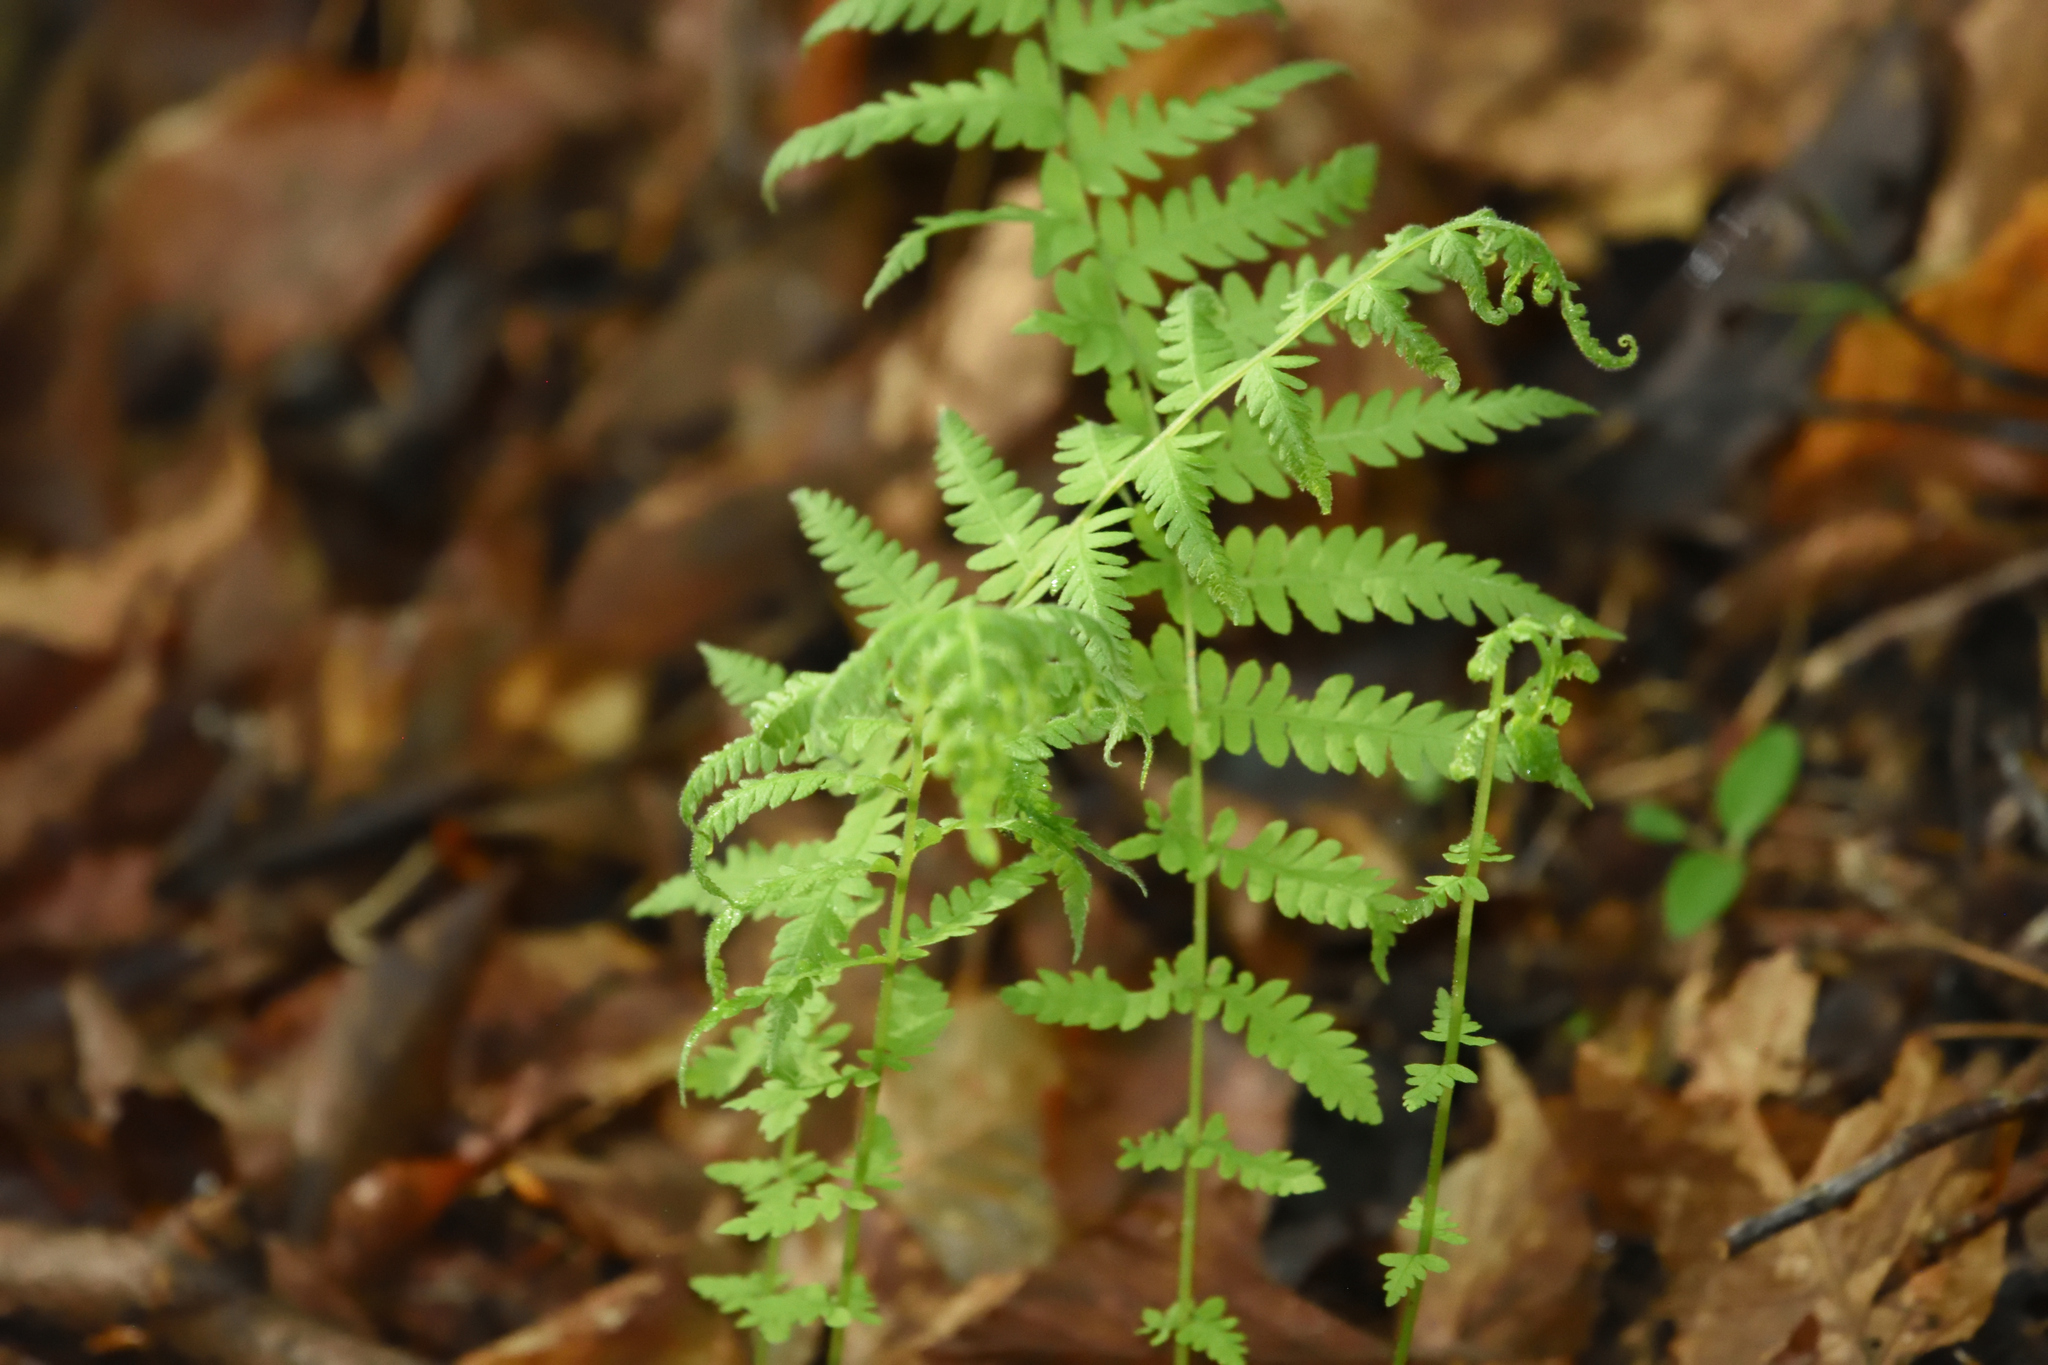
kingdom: Plantae
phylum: Tracheophyta
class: Polypodiopsida
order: Polypodiales
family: Thelypteridaceae
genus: Amauropelta
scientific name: Amauropelta noveboracensis
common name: New york fern
